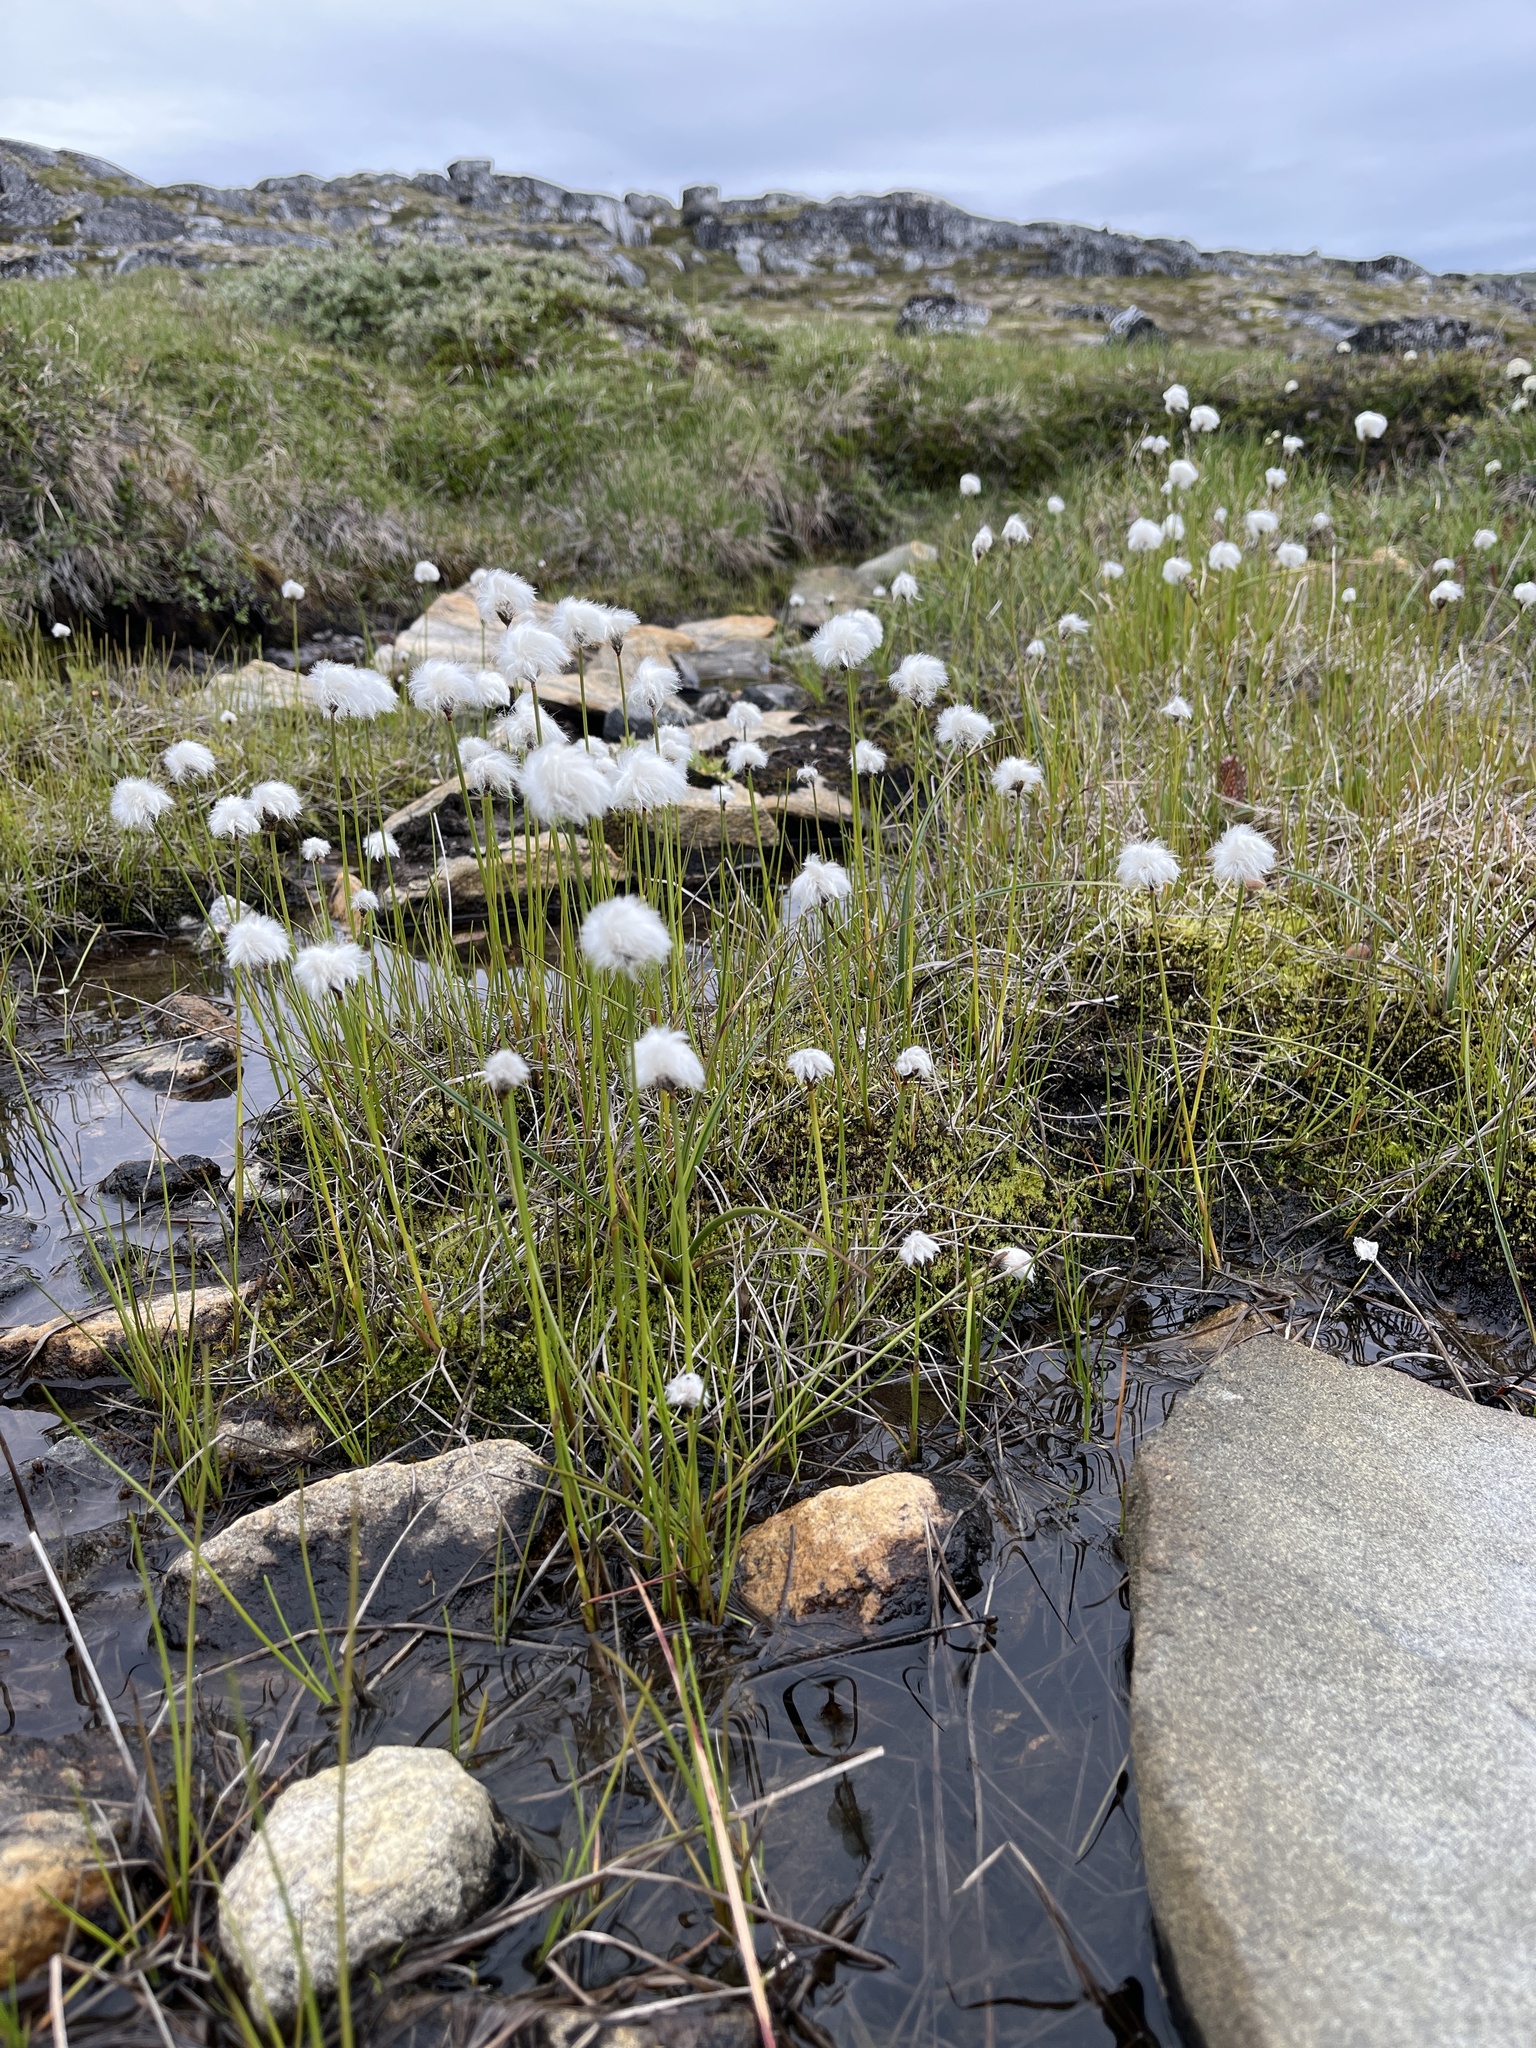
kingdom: Plantae
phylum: Tracheophyta
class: Liliopsida
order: Poales
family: Cyperaceae
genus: Eriophorum
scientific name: Eriophorum scheuchzeri
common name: Scheuchzer's cottongrass
